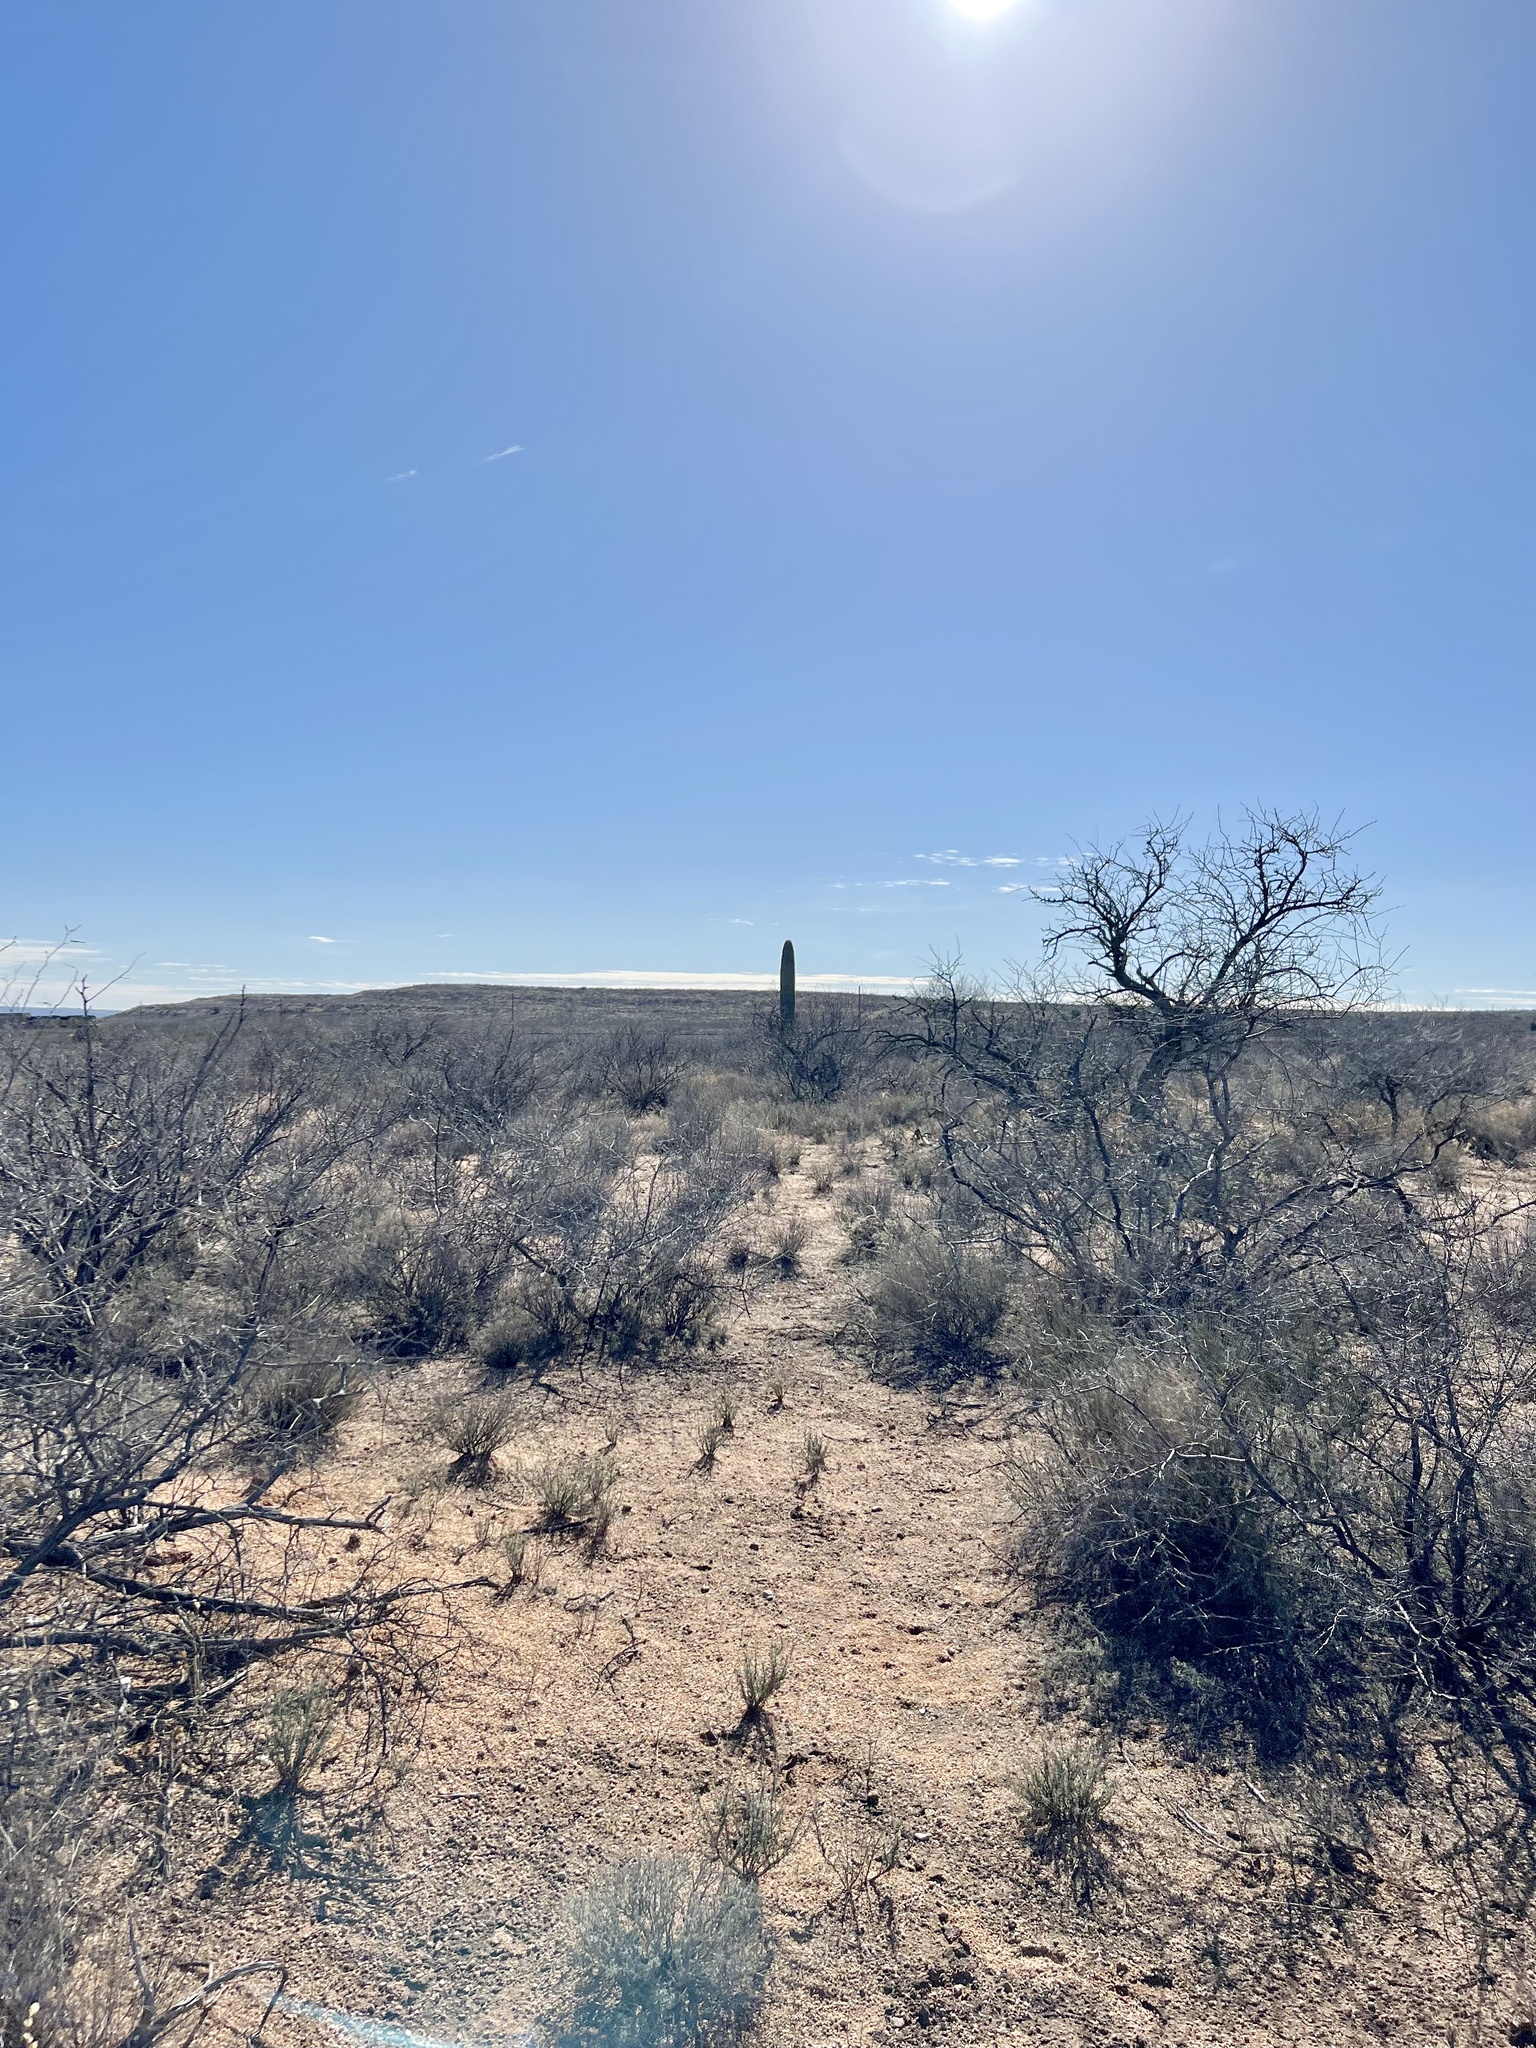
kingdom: Plantae
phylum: Tracheophyta
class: Magnoliopsida
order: Caryophyllales
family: Cactaceae
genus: Carnegiea
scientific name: Carnegiea gigantea
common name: Saguaro
